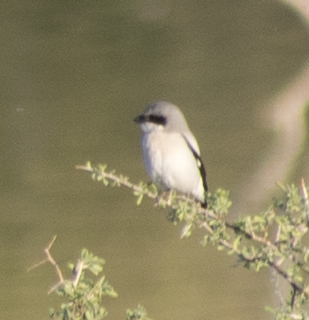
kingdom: Animalia
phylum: Chordata
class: Aves
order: Passeriformes
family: Laniidae
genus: Lanius
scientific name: Lanius ludovicianus
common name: Loggerhead shrike
